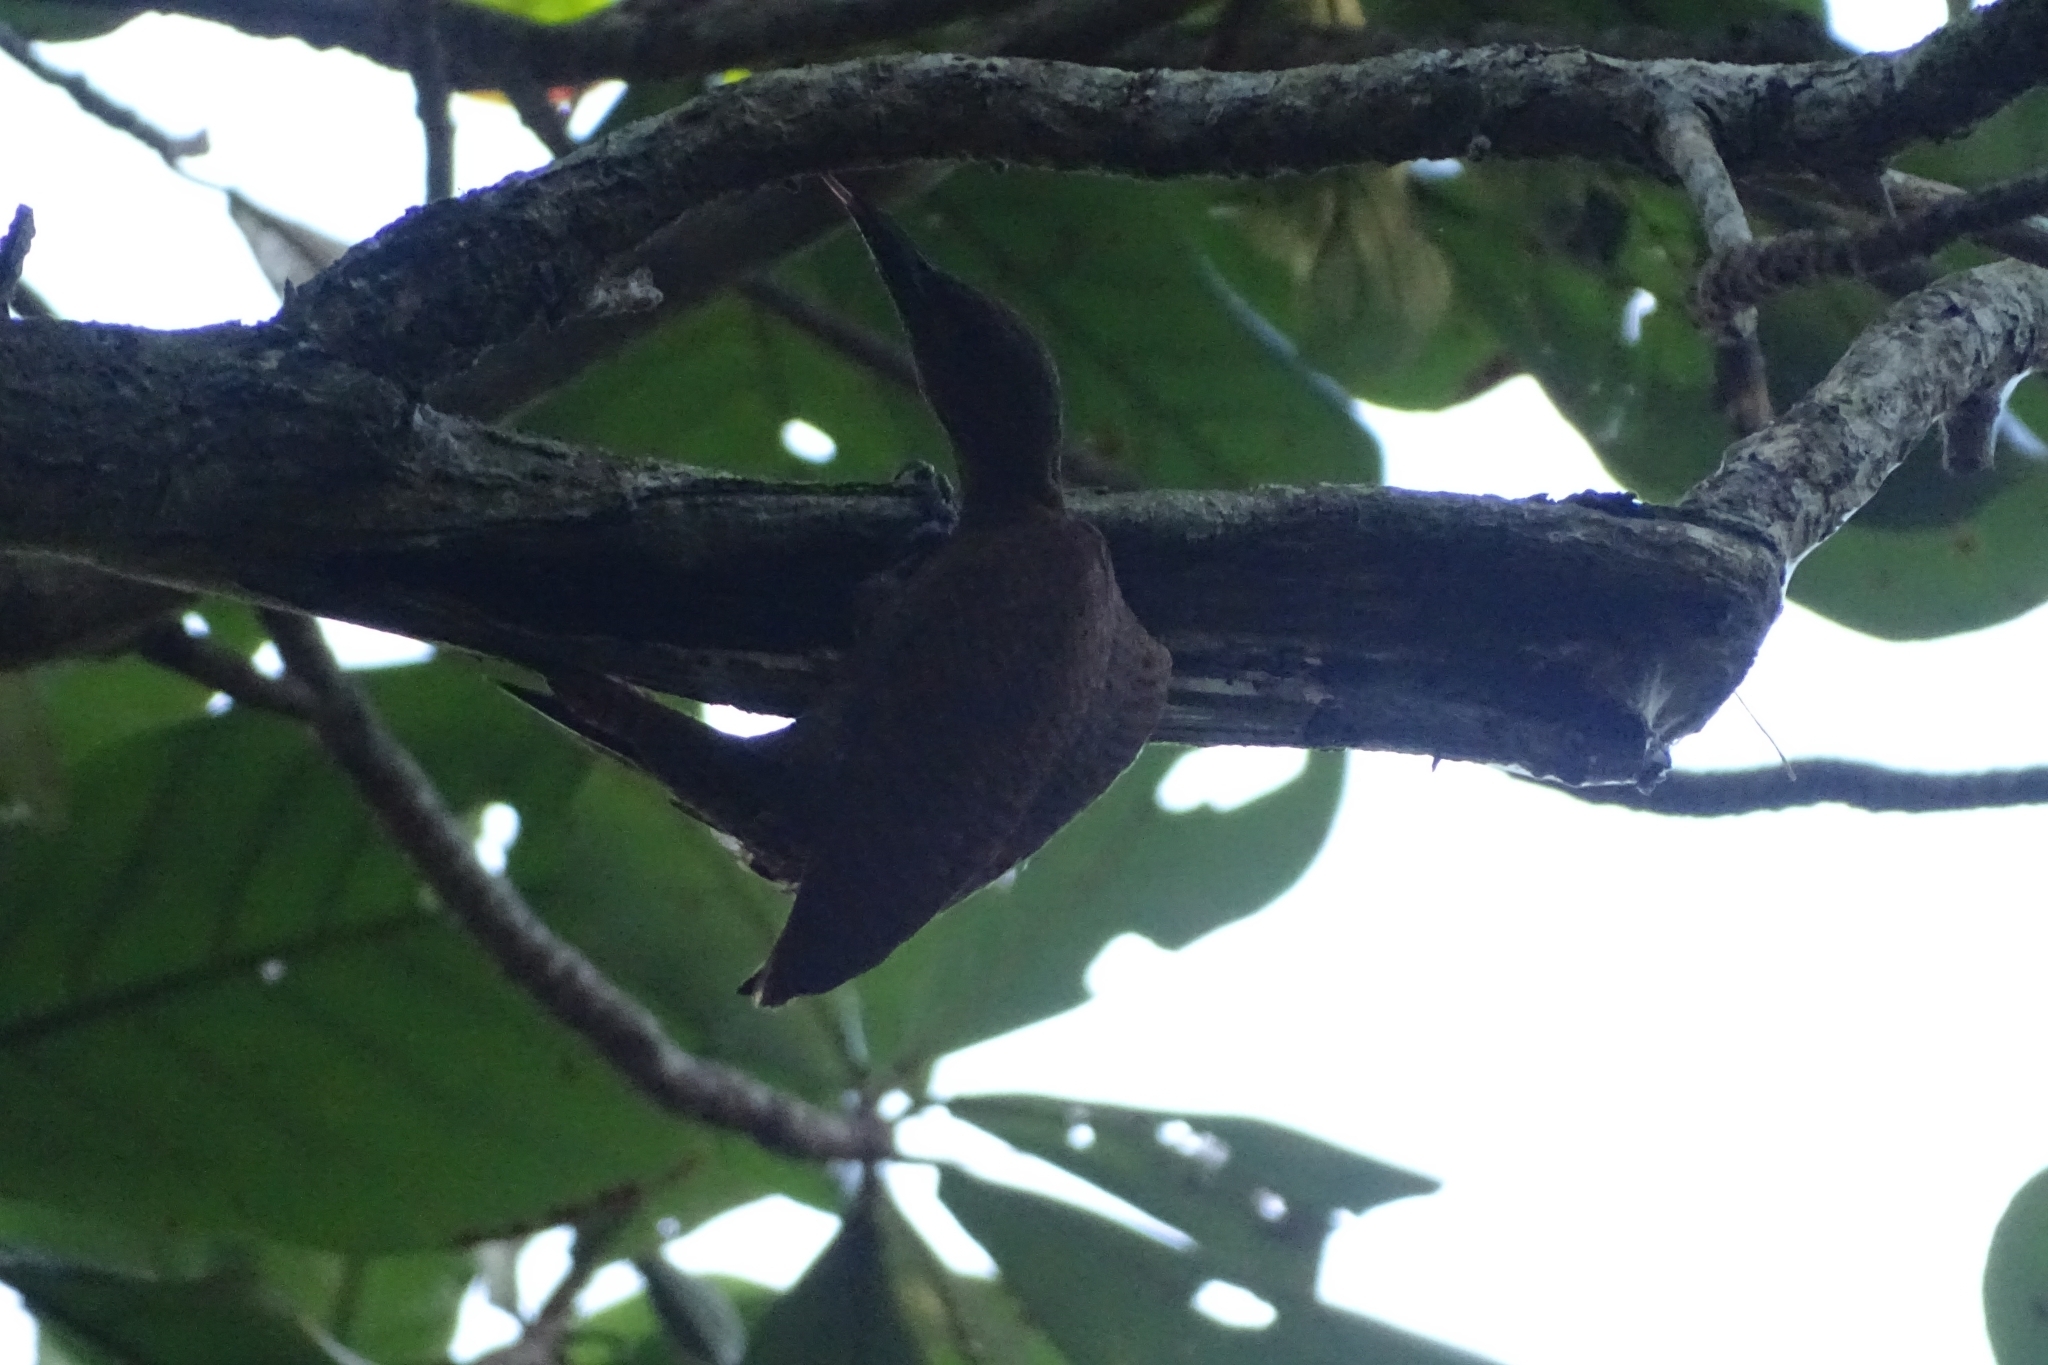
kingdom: Animalia
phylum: Chordata
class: Aves
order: Piciformes
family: Picidae
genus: Micropternus
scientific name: Micropternus brachyurus
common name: Rufous woodpecker
